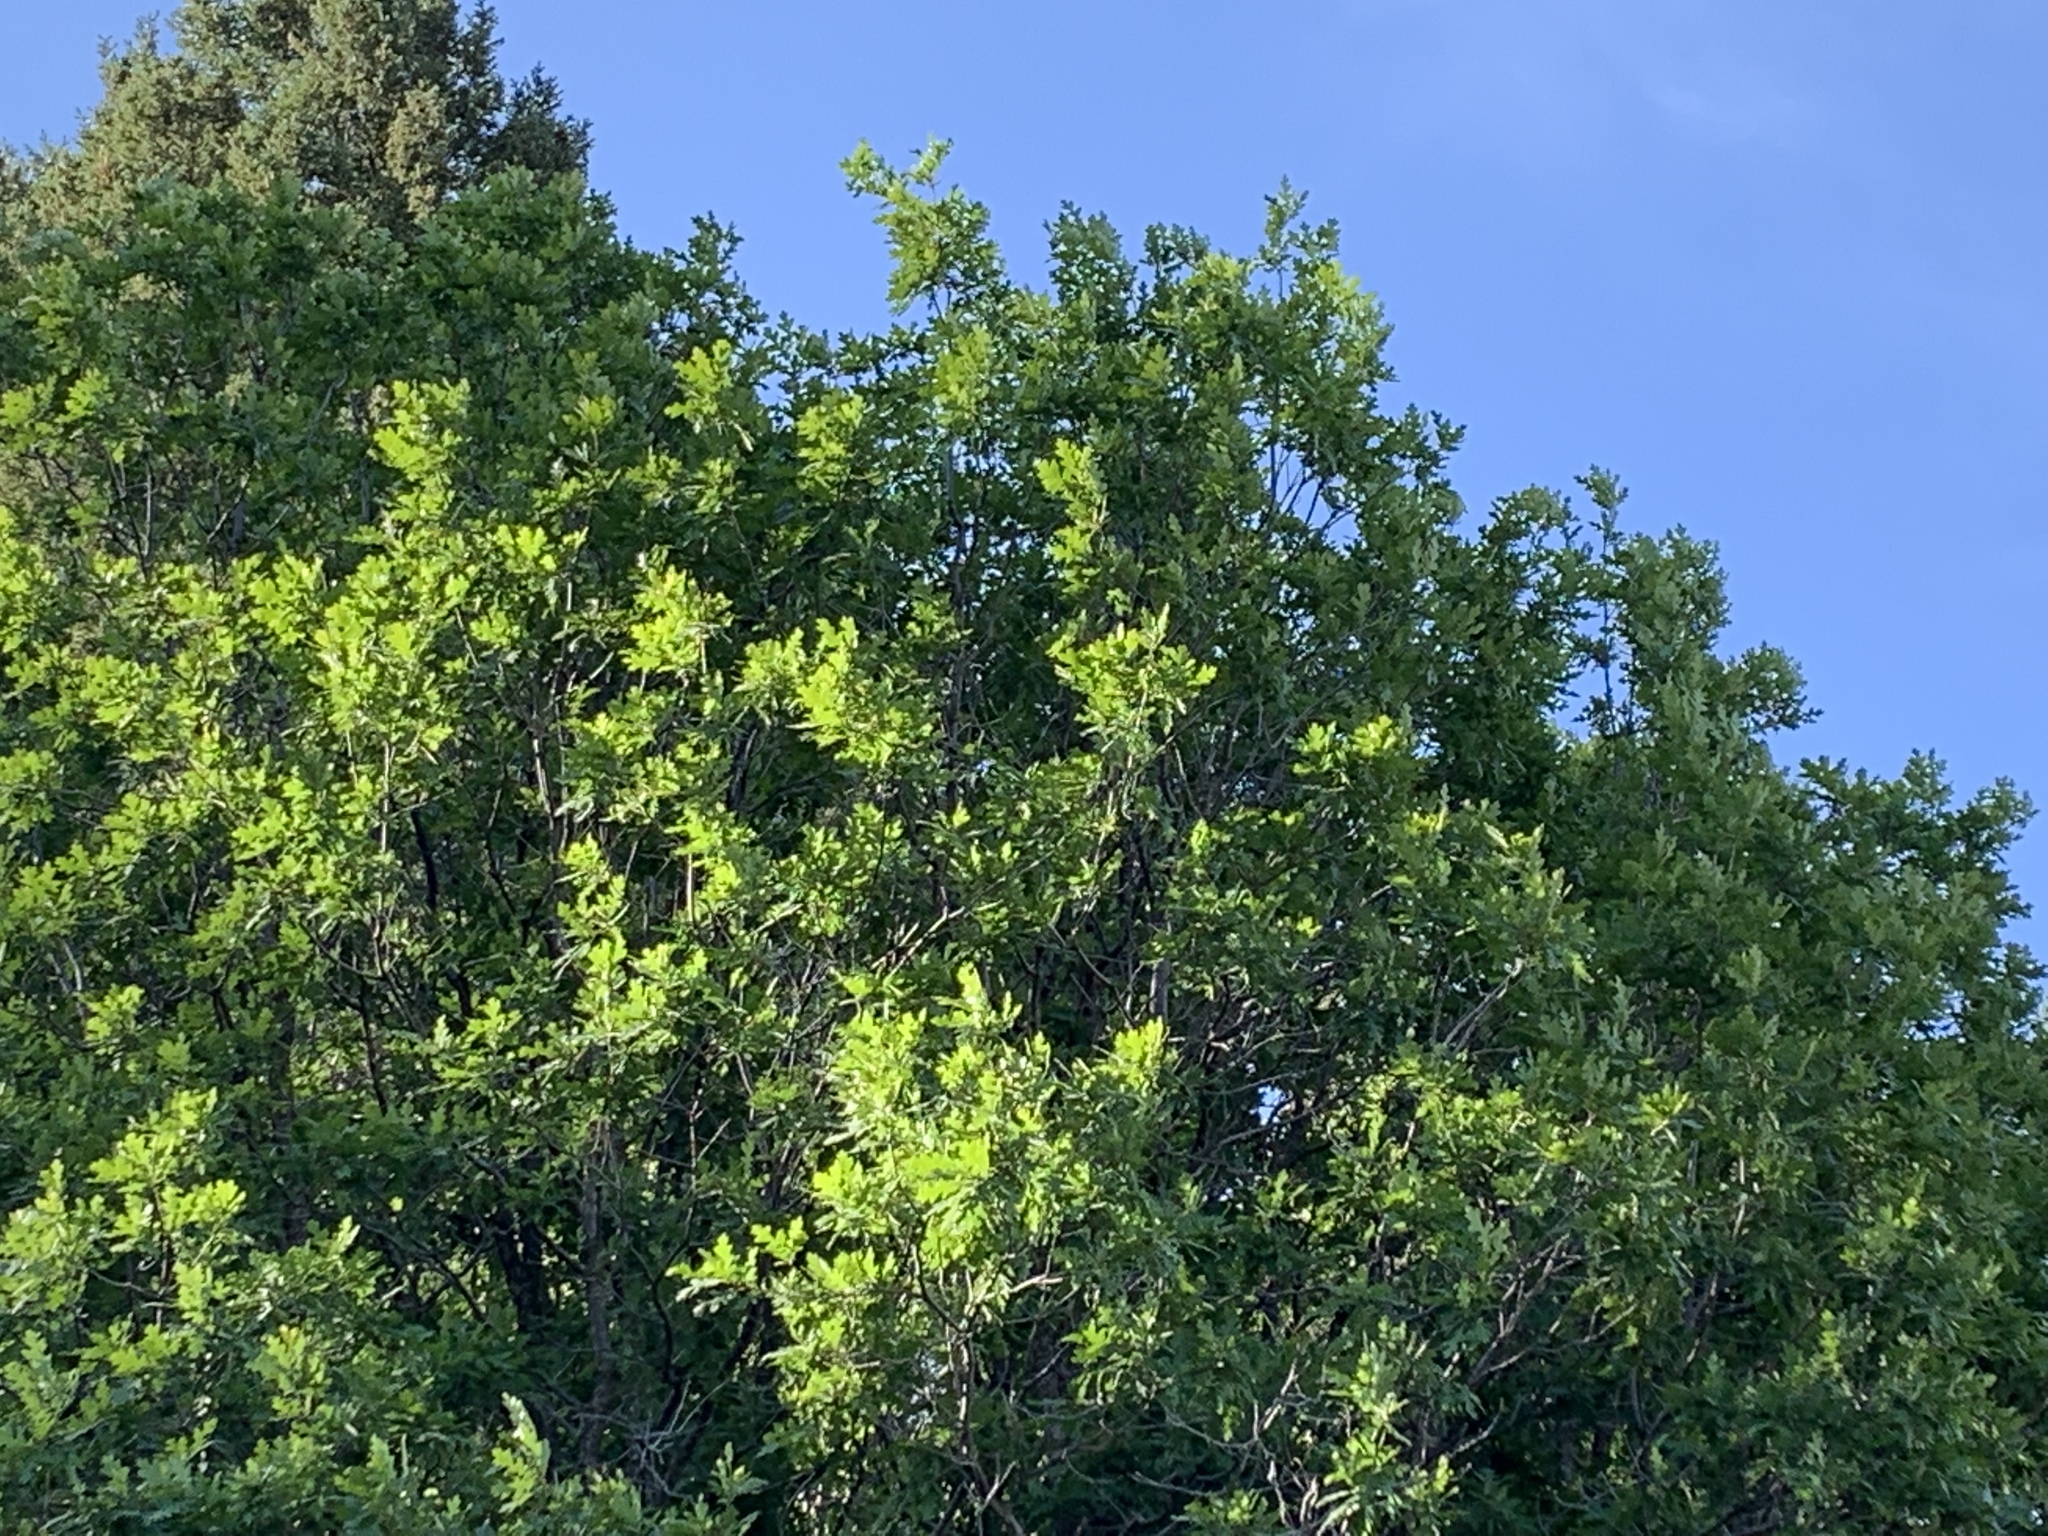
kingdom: Plantae
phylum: Tracheophyta
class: Magnoliopsida
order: Fagales
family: Fagaceae
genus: Quercus
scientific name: Quercus gambelii
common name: Gambel oak
